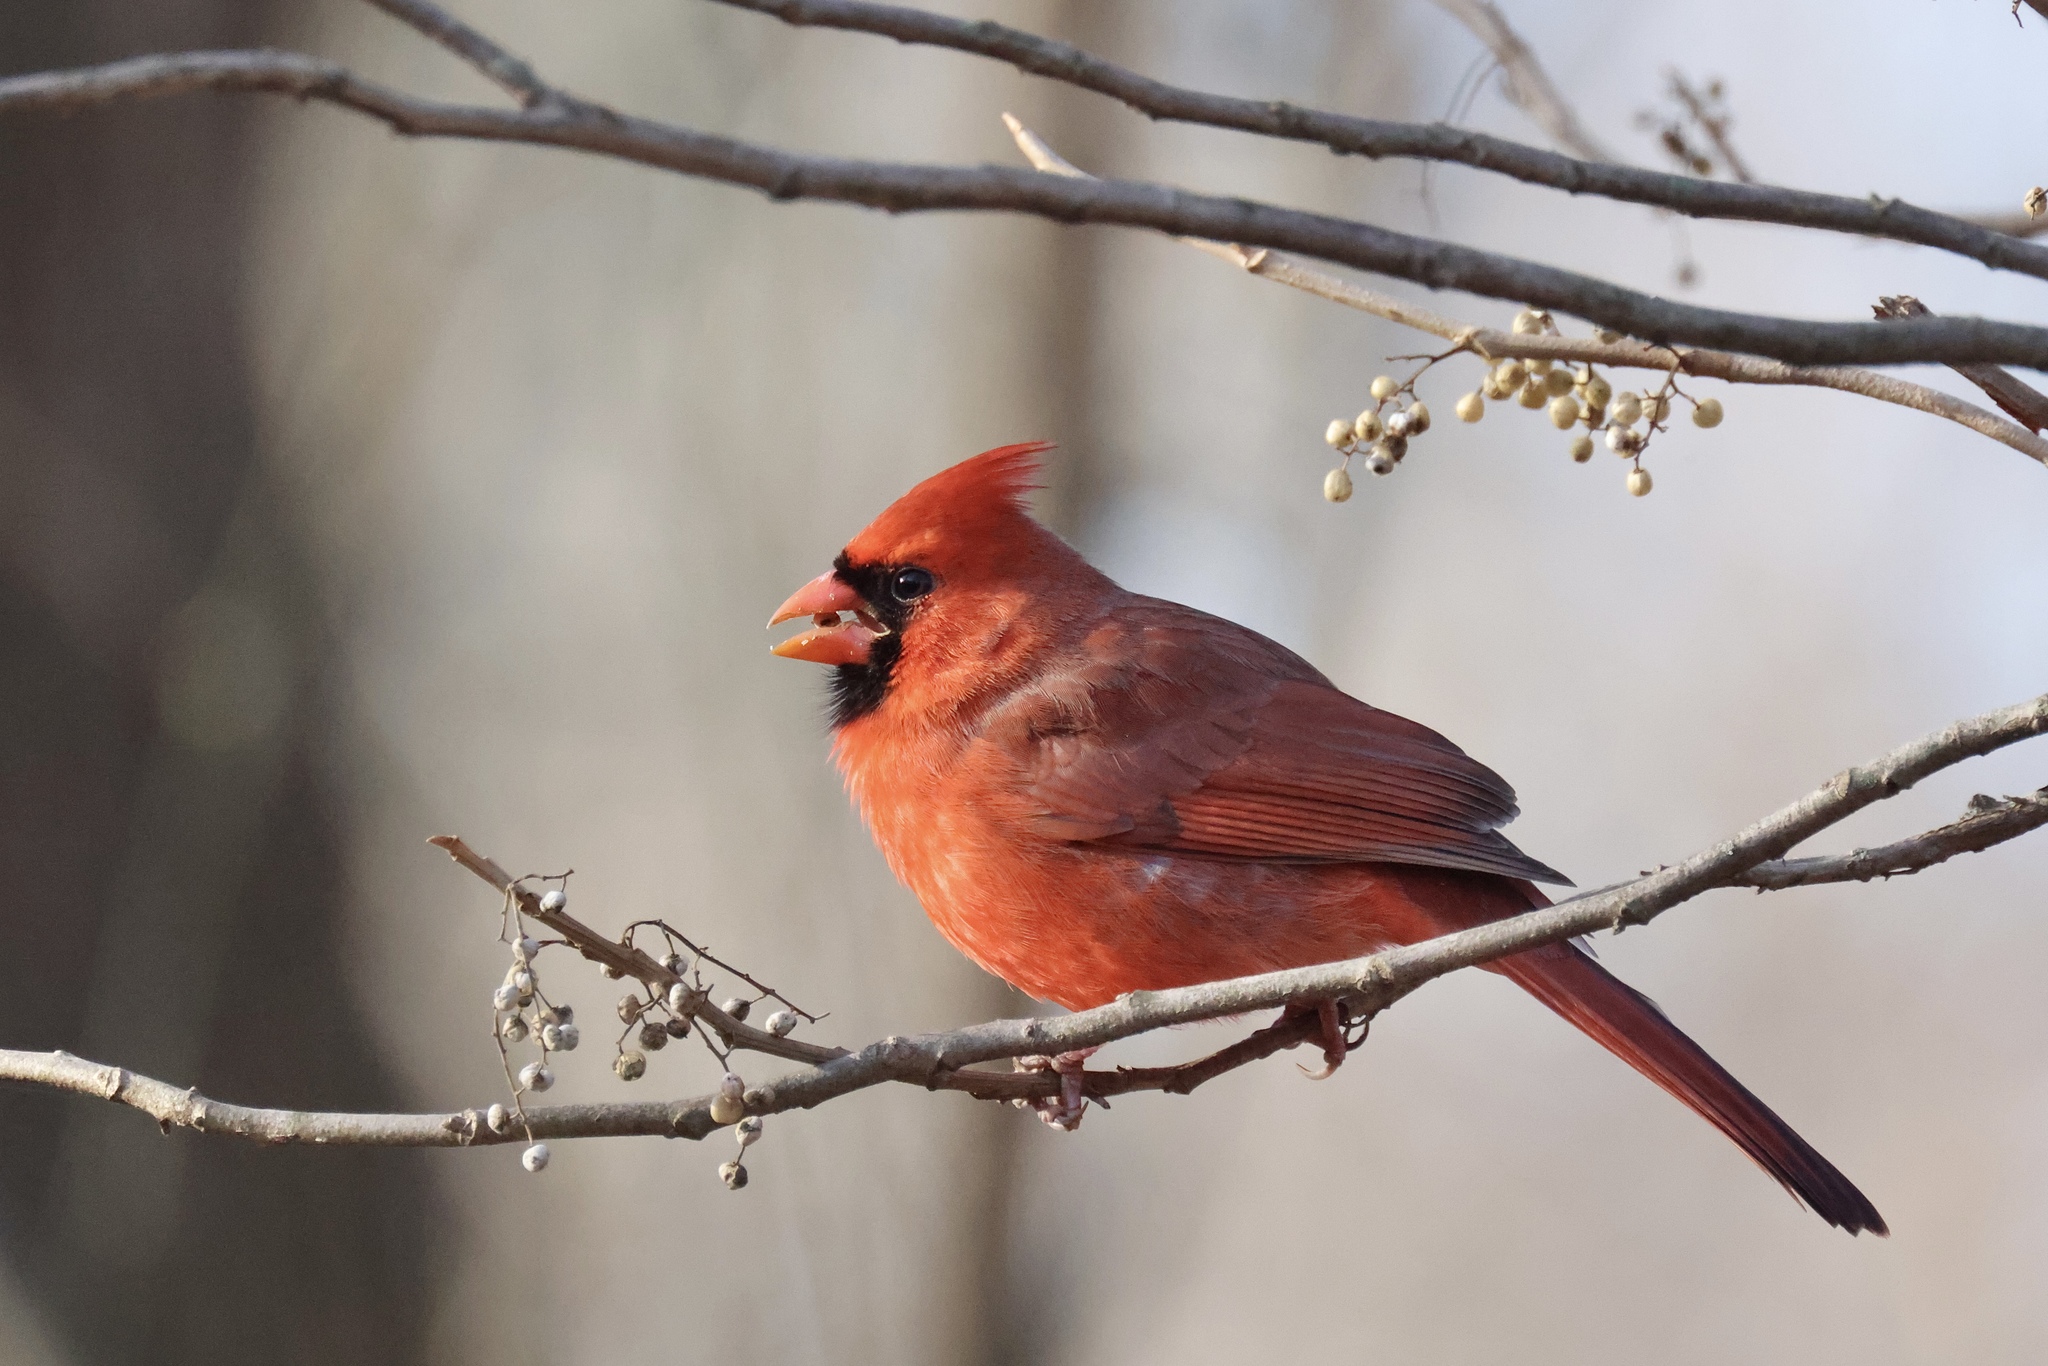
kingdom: Animalia
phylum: Chordata
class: Aves
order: Passeriformes
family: Cardinalidae
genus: Cardinalis
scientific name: Cardinalis cardinalis
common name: Northern cardinal
